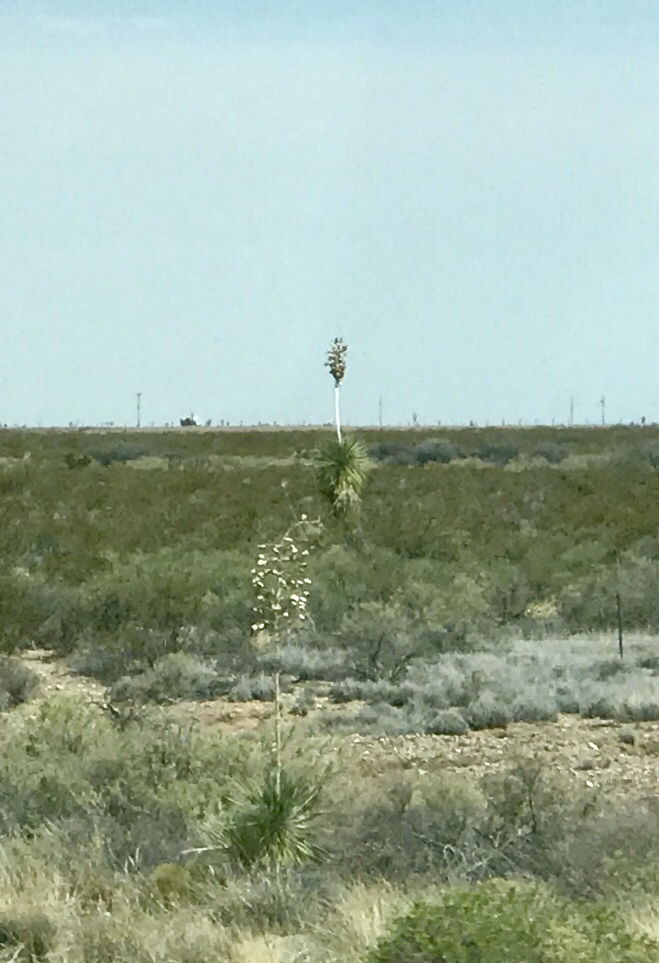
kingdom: Plantae
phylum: Tracheophyta
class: Liliopsida
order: Asparagales
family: Asparagaceae
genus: Yucca
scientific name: Yucca elata
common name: Palmella
